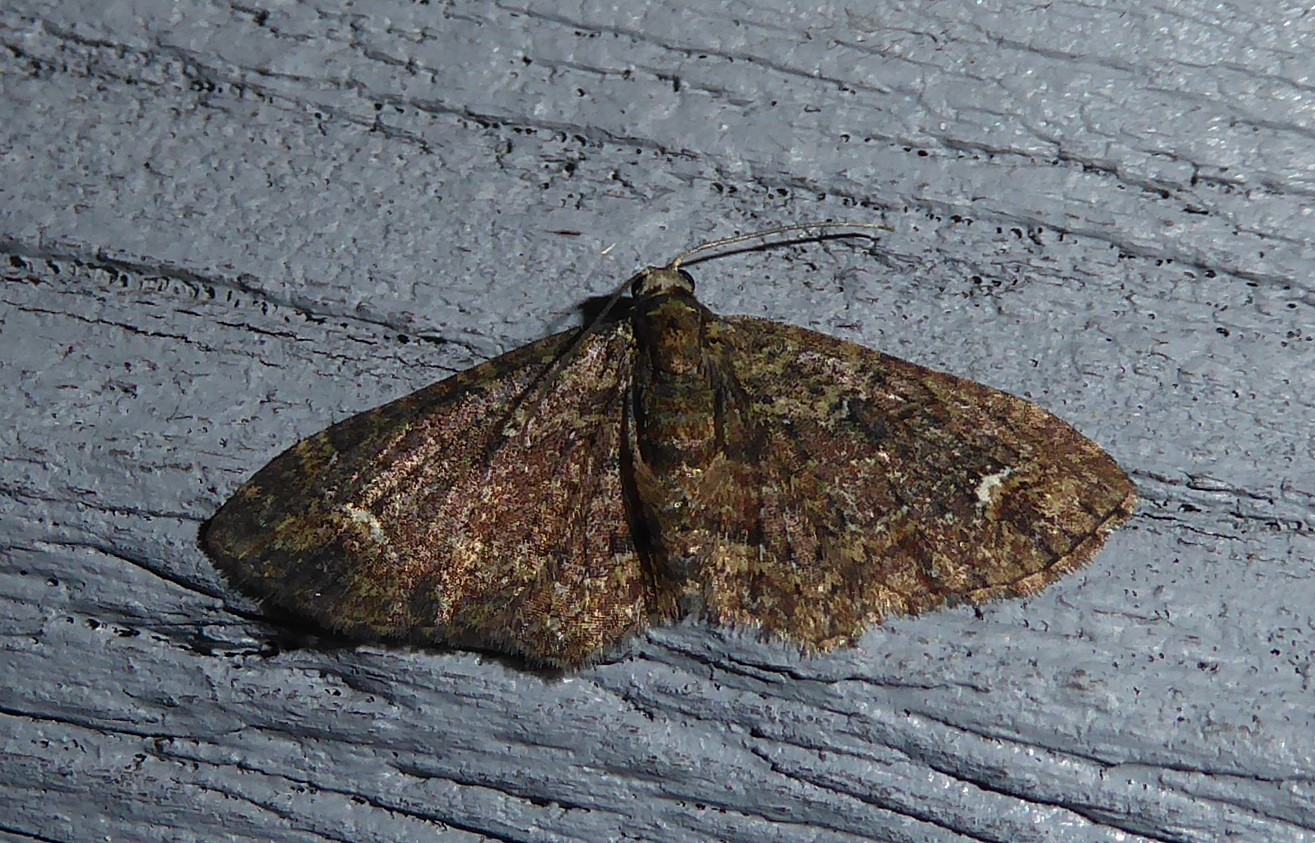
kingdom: Animalia
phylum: Arthropoda
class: Insecta
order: Lepidoptera
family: Geometridae
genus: Pasiphilodes
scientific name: Pasiphilodes testulata
